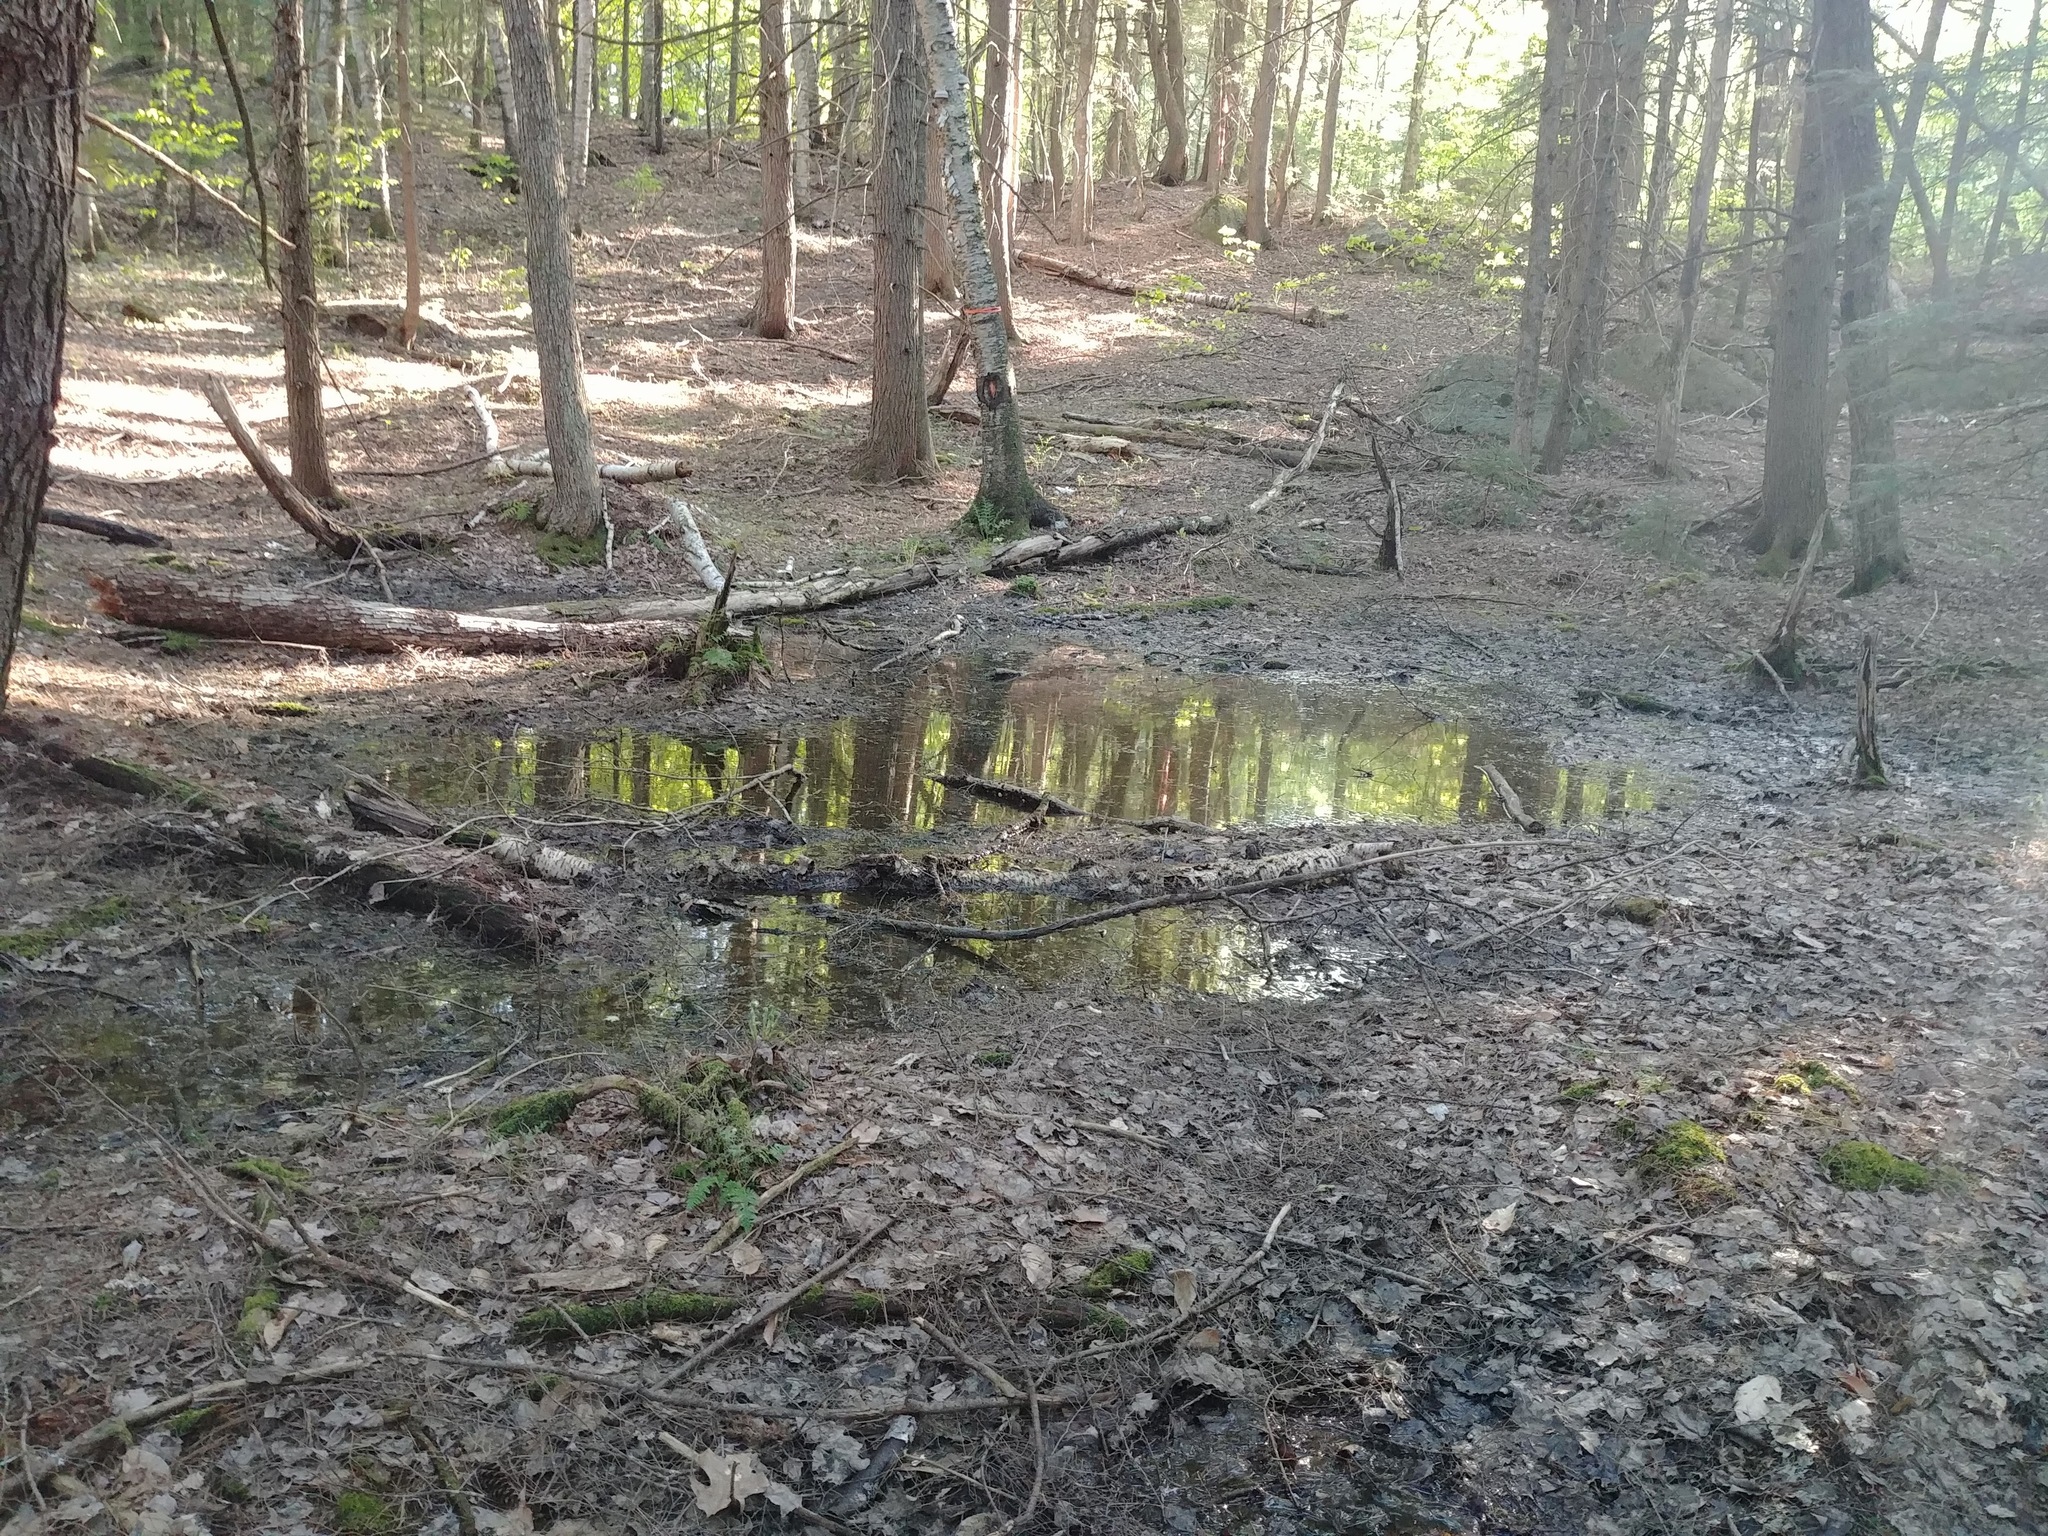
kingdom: Animalia
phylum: Chordata
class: Amphibia
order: Caudata
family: Ambystomatidae
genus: Ambystoma
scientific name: Ambystoma maculatum
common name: Spotted salamander
